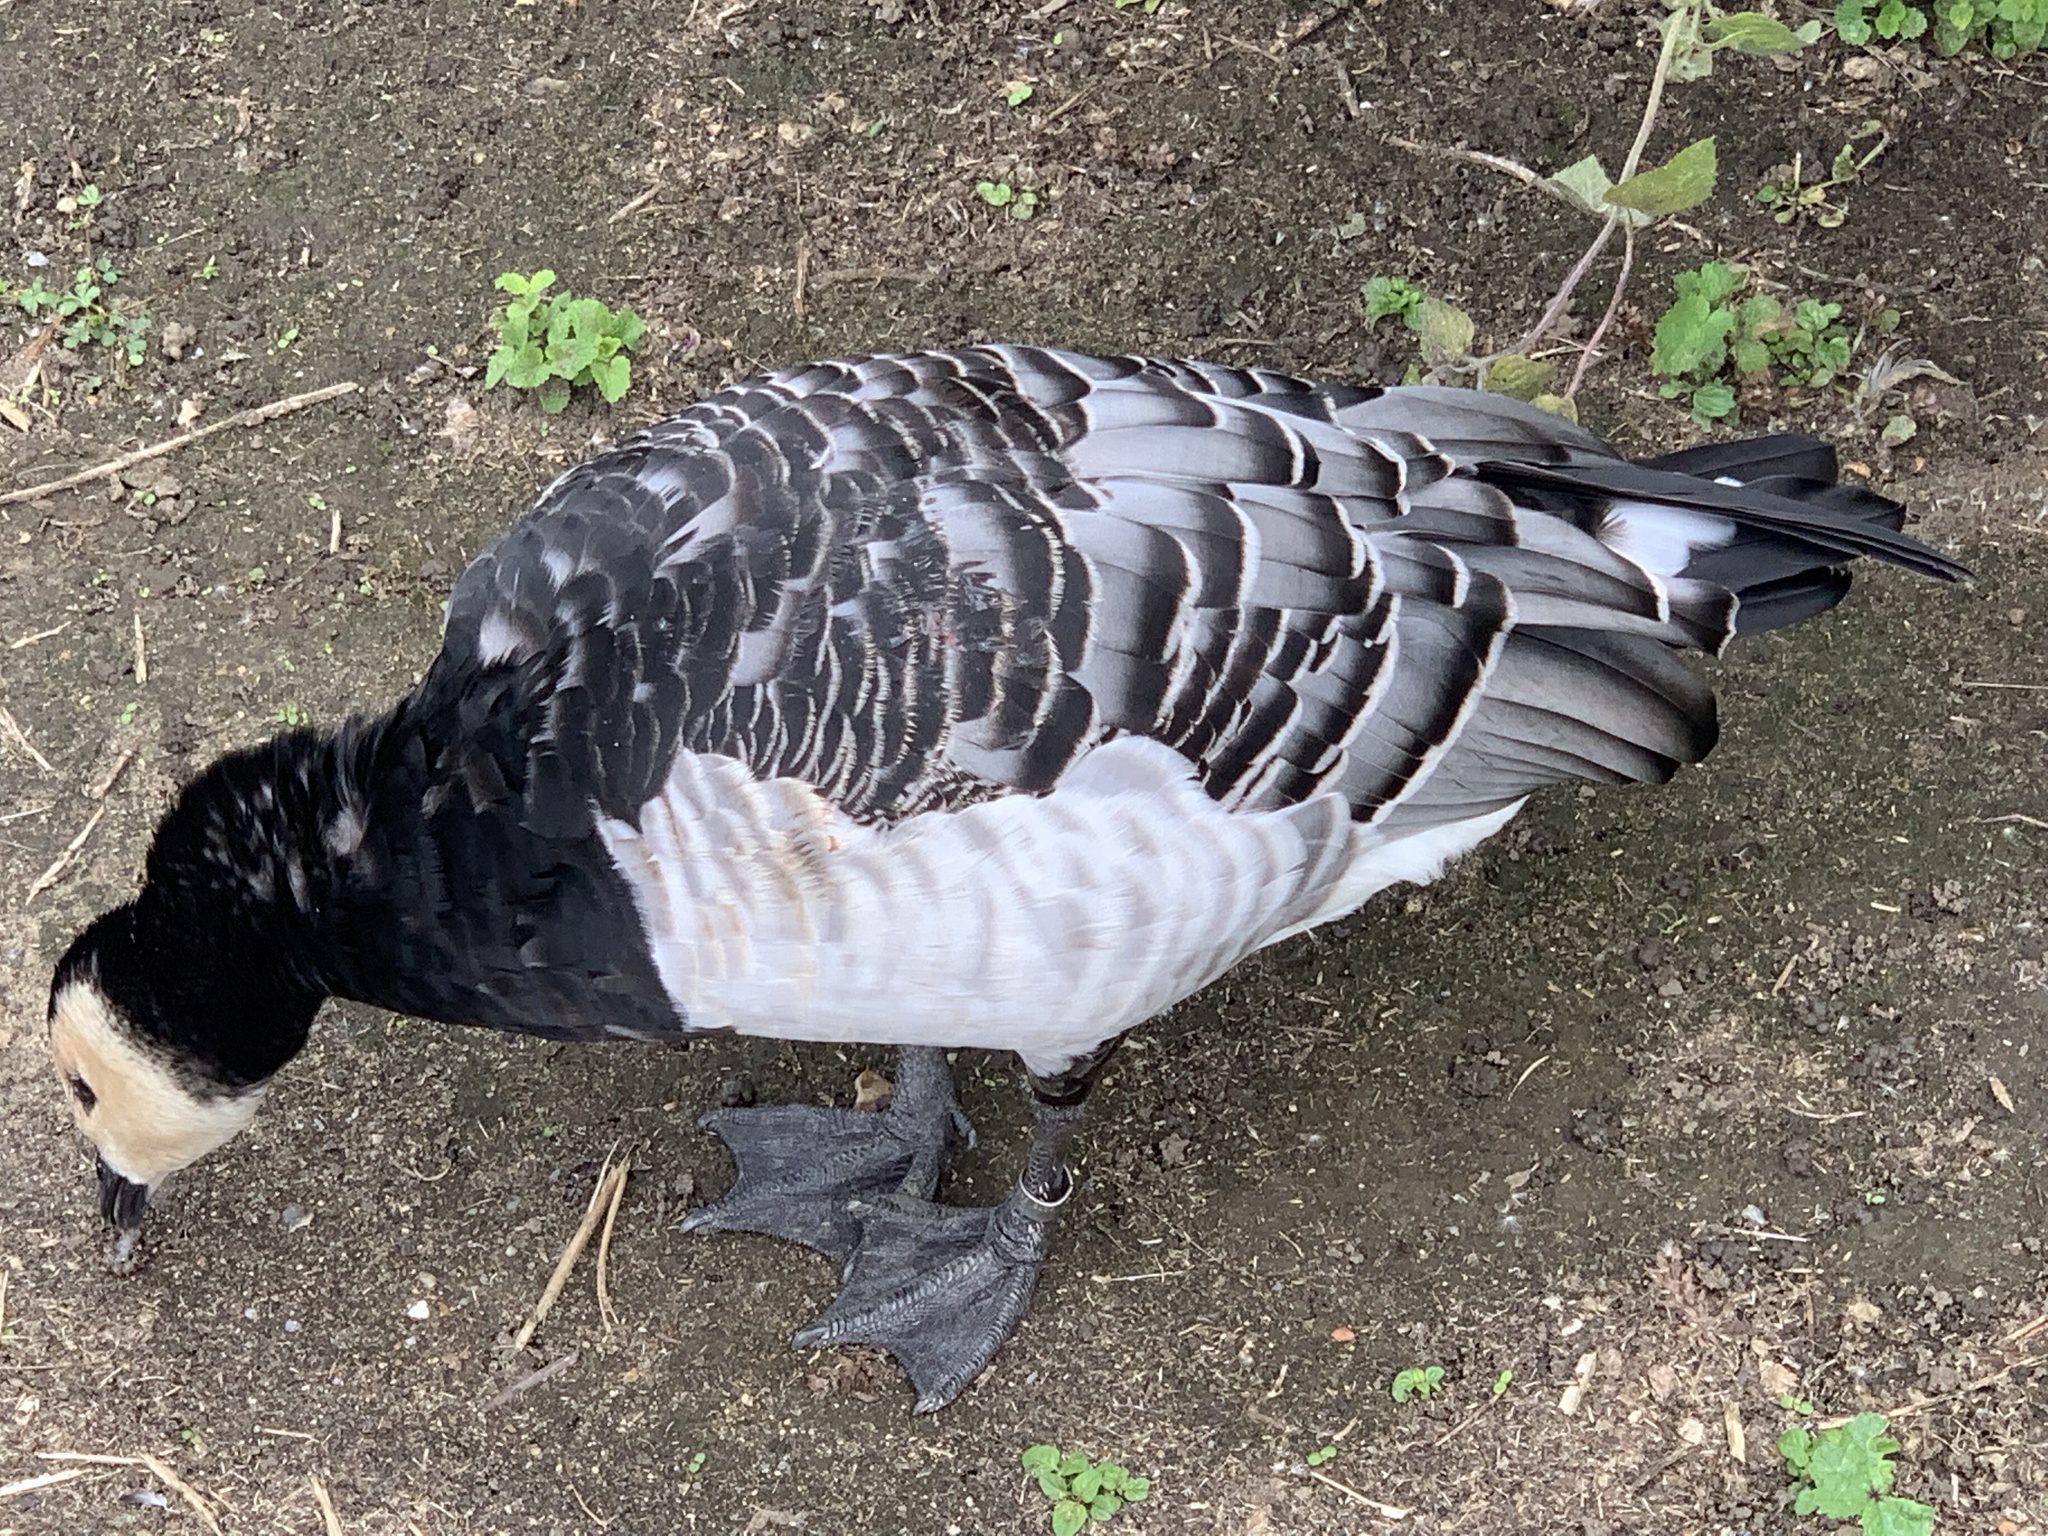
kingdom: Animalia
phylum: Chordata
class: Aves
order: Anseriformes
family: Anatidae
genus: Branta
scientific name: Branta leucopsis
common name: Barnacle goose
